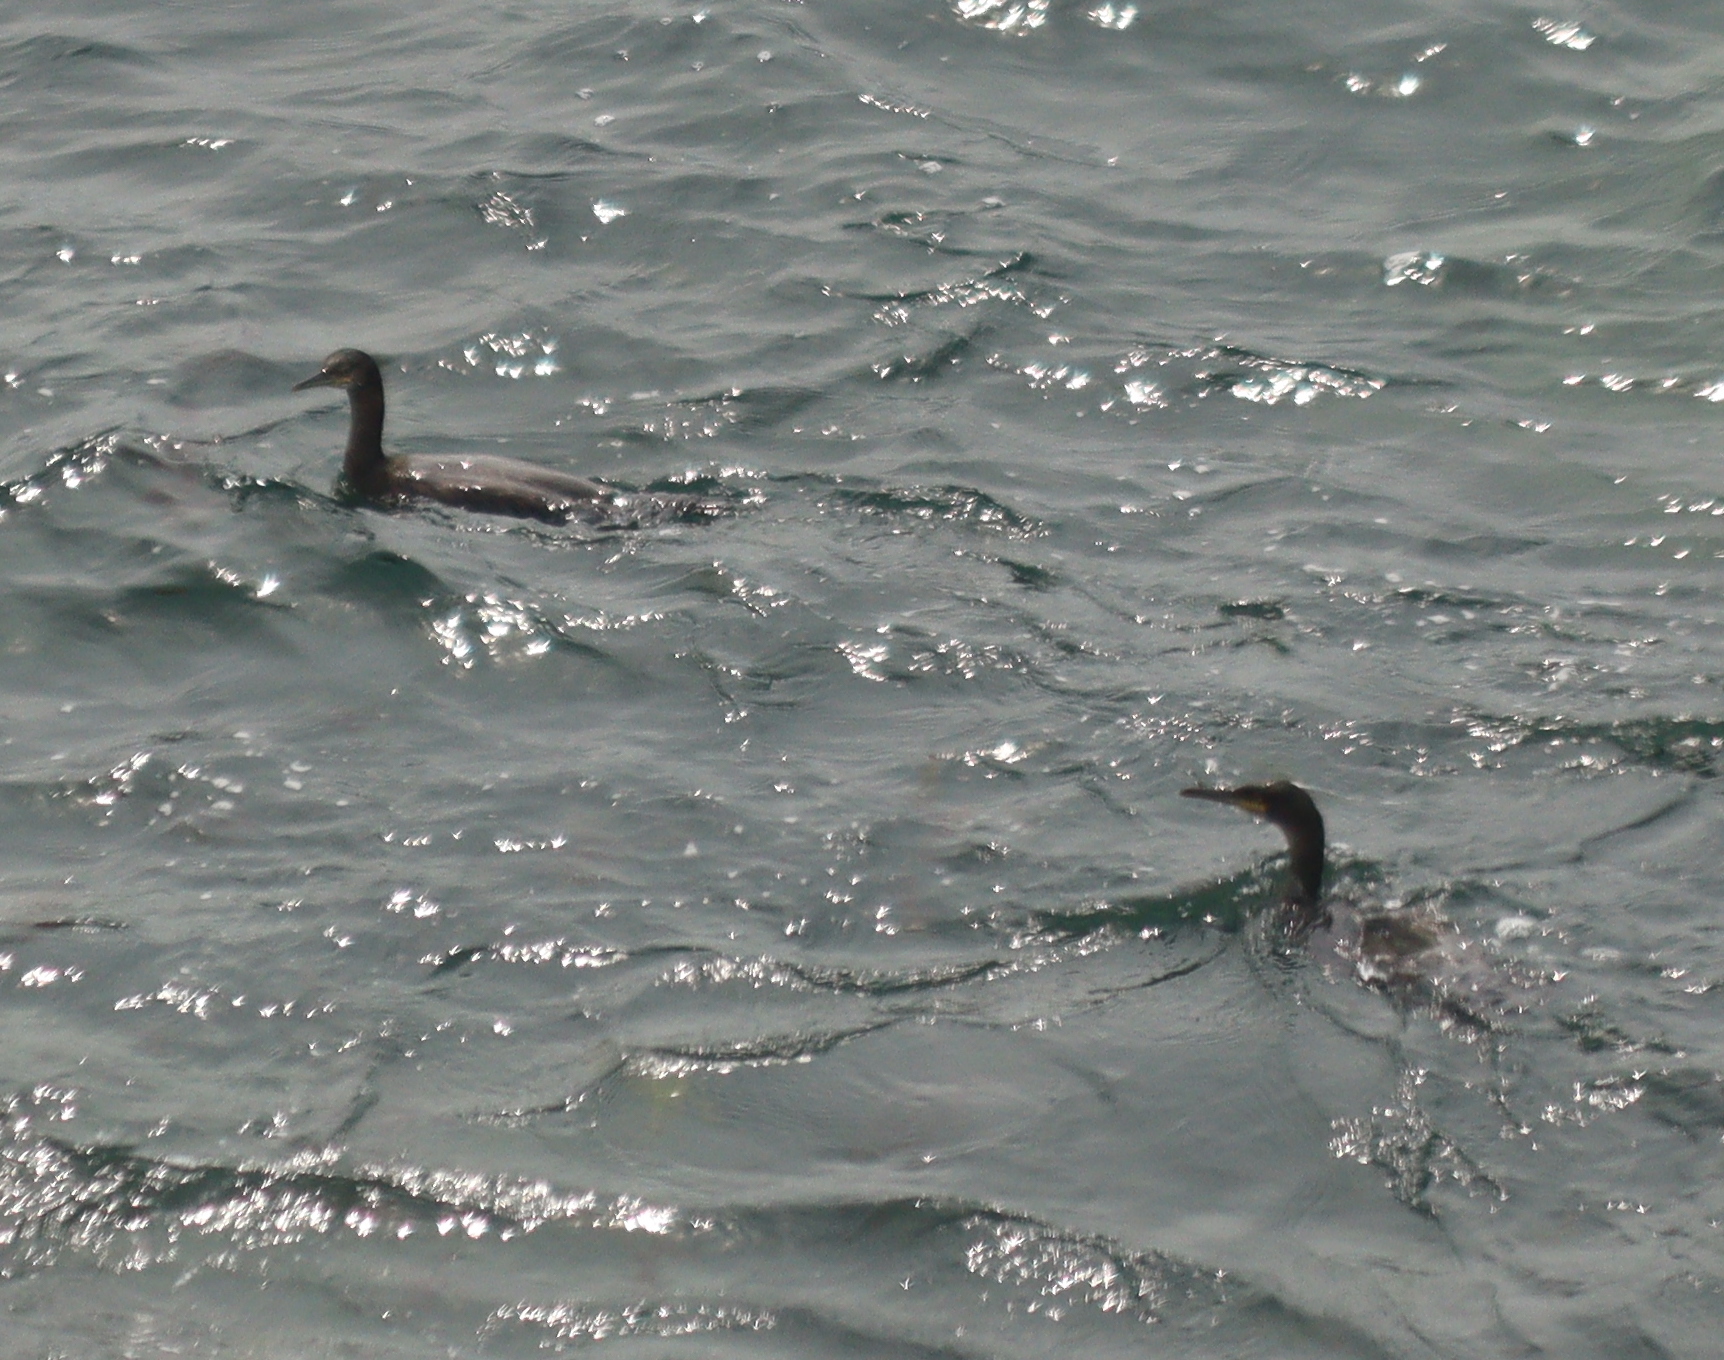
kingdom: Animalia
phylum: Chordata
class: Aves
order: Suliformes
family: Phalacrocoracidae
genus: Phalacrocorax
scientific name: Phalacrocorax aristotelis
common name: European shag
